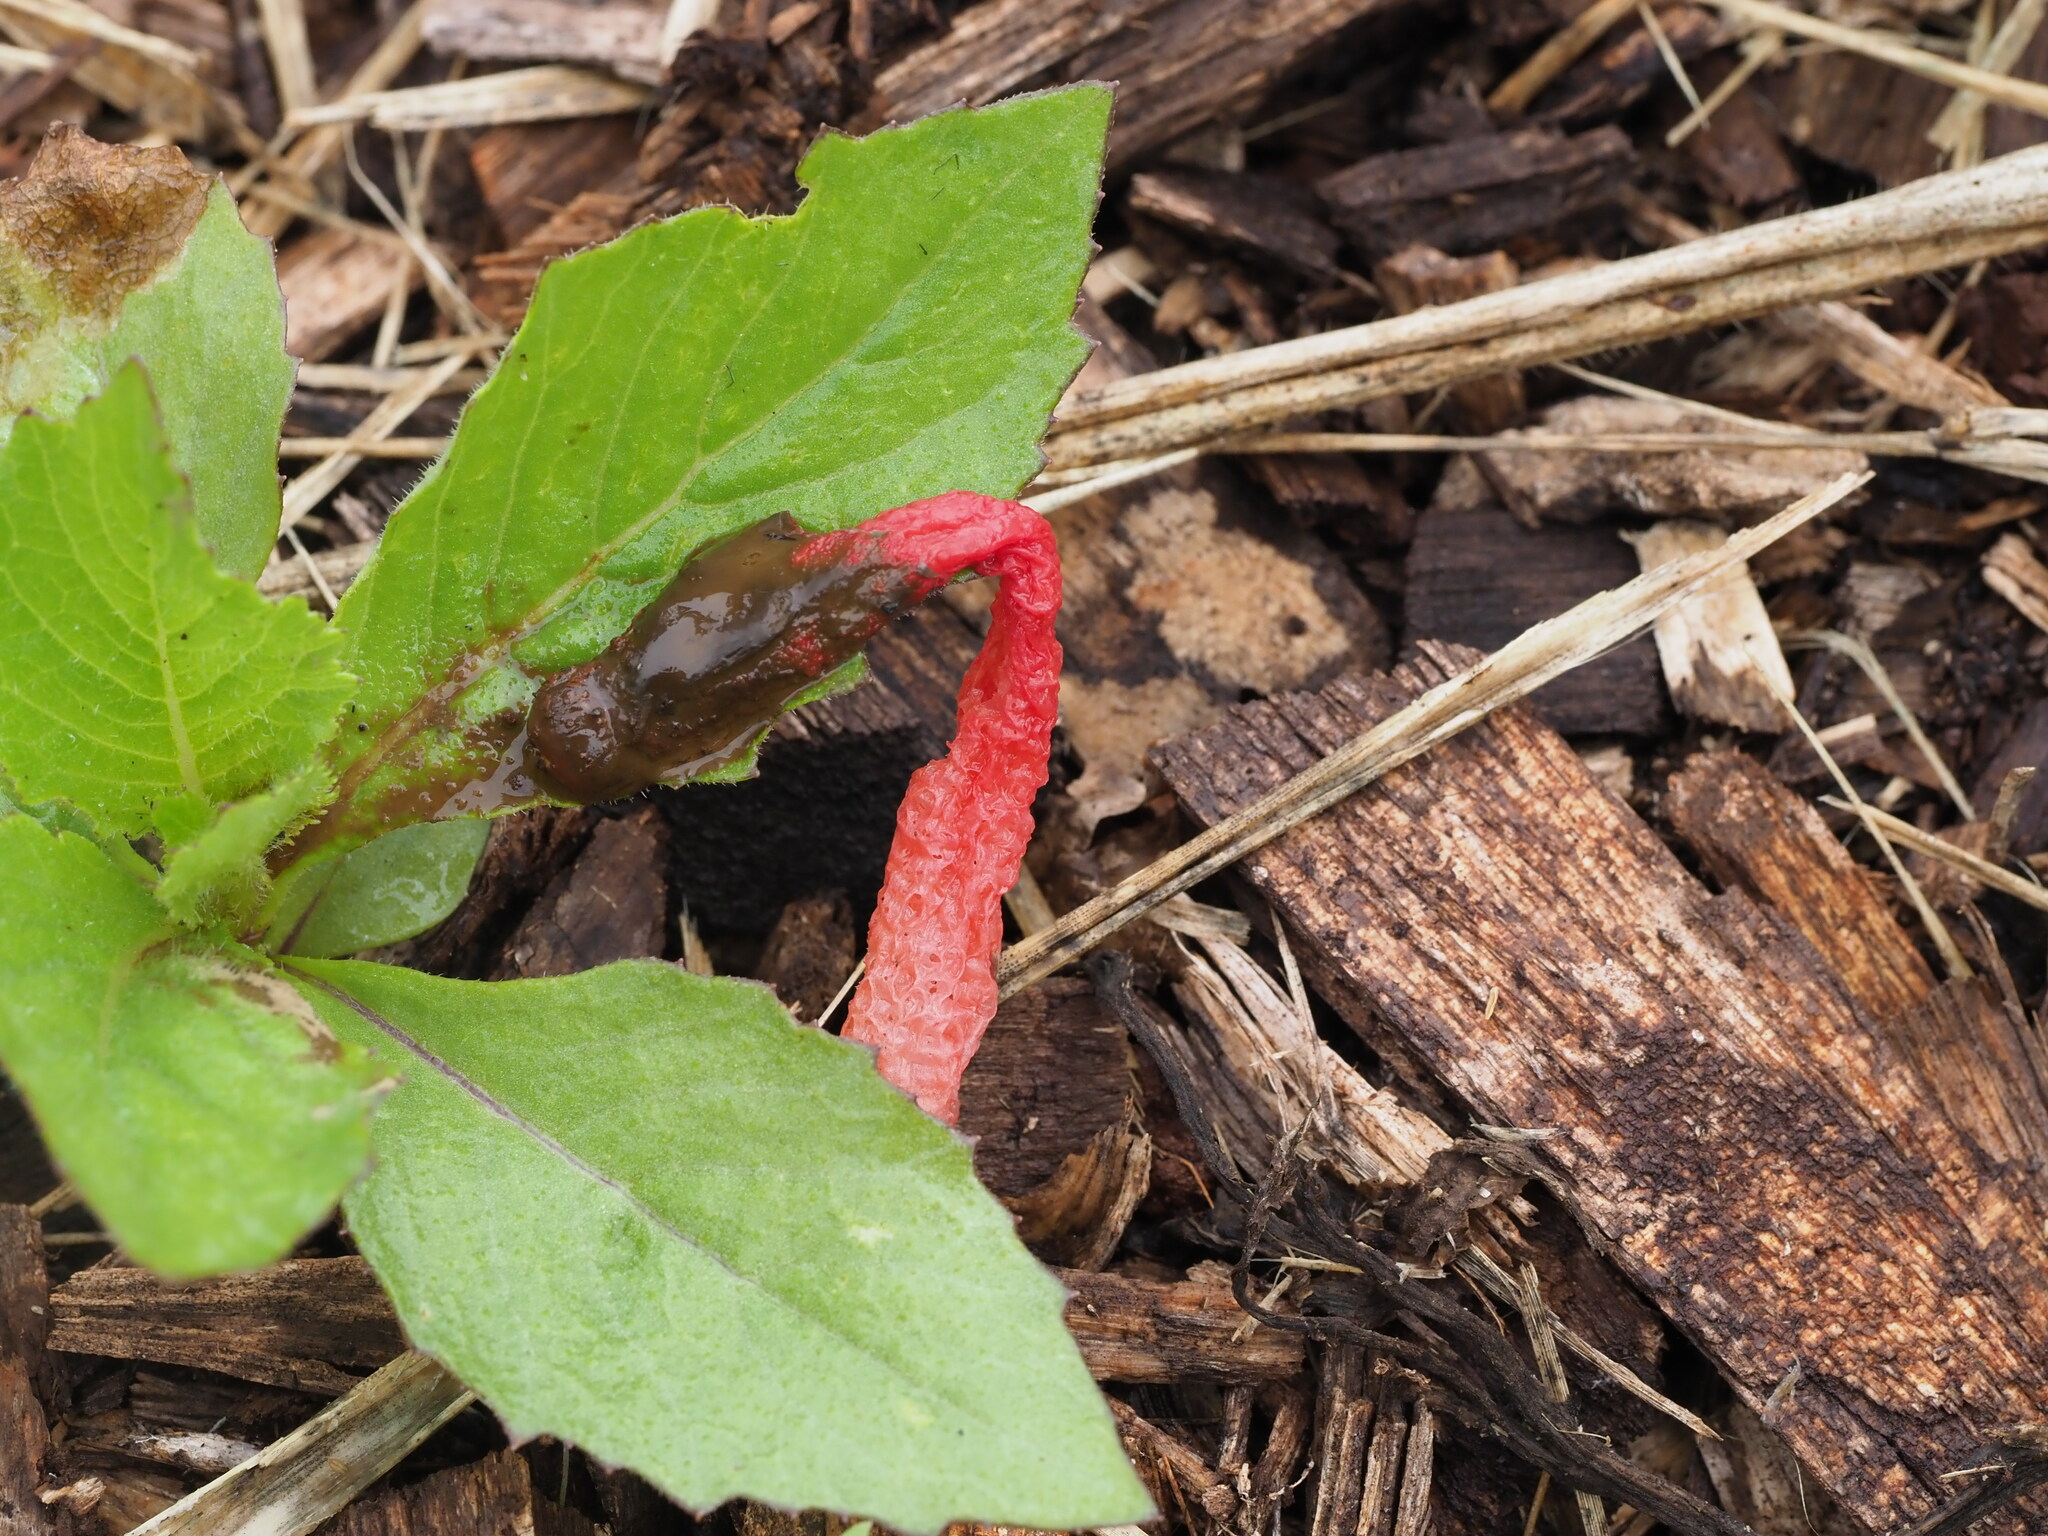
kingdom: Fungi
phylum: Basidiomycota
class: Agaricomycetes
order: Phallales
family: Phallaceae
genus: Phallus
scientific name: Phallus rugulosus
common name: Wrinkly stinkhorn
